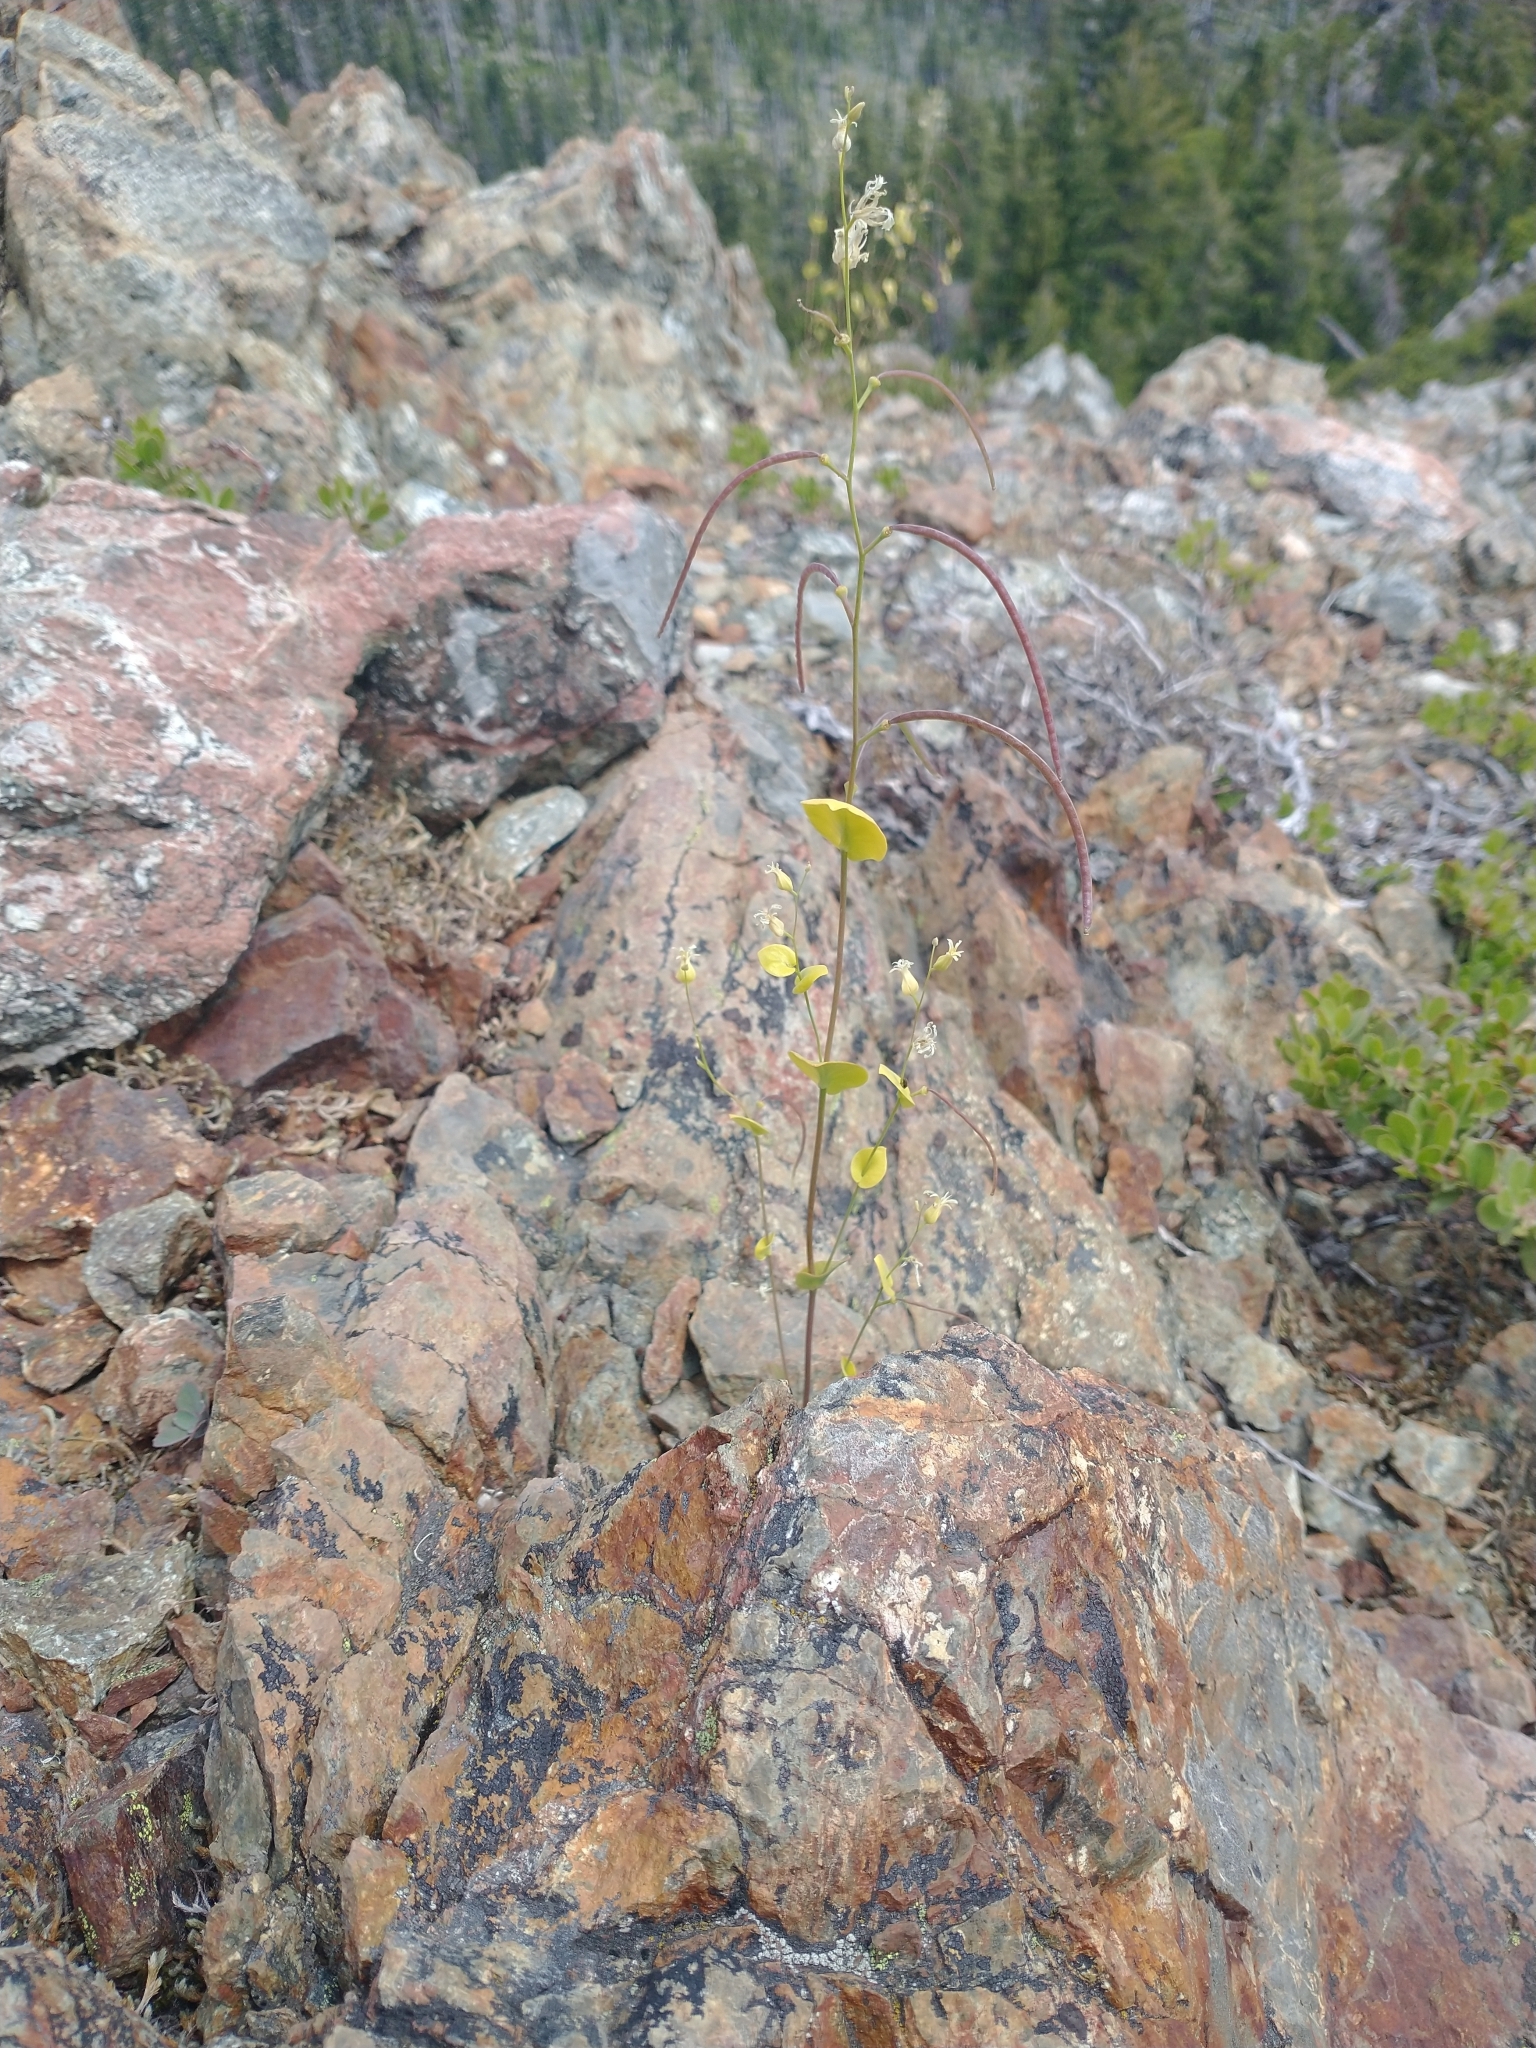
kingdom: Plantae
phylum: Tracheophyta
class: Magnoliopsida
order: Brassicales
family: Brassicaceae
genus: Streptanthus
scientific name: Streptanthus tortuosus
